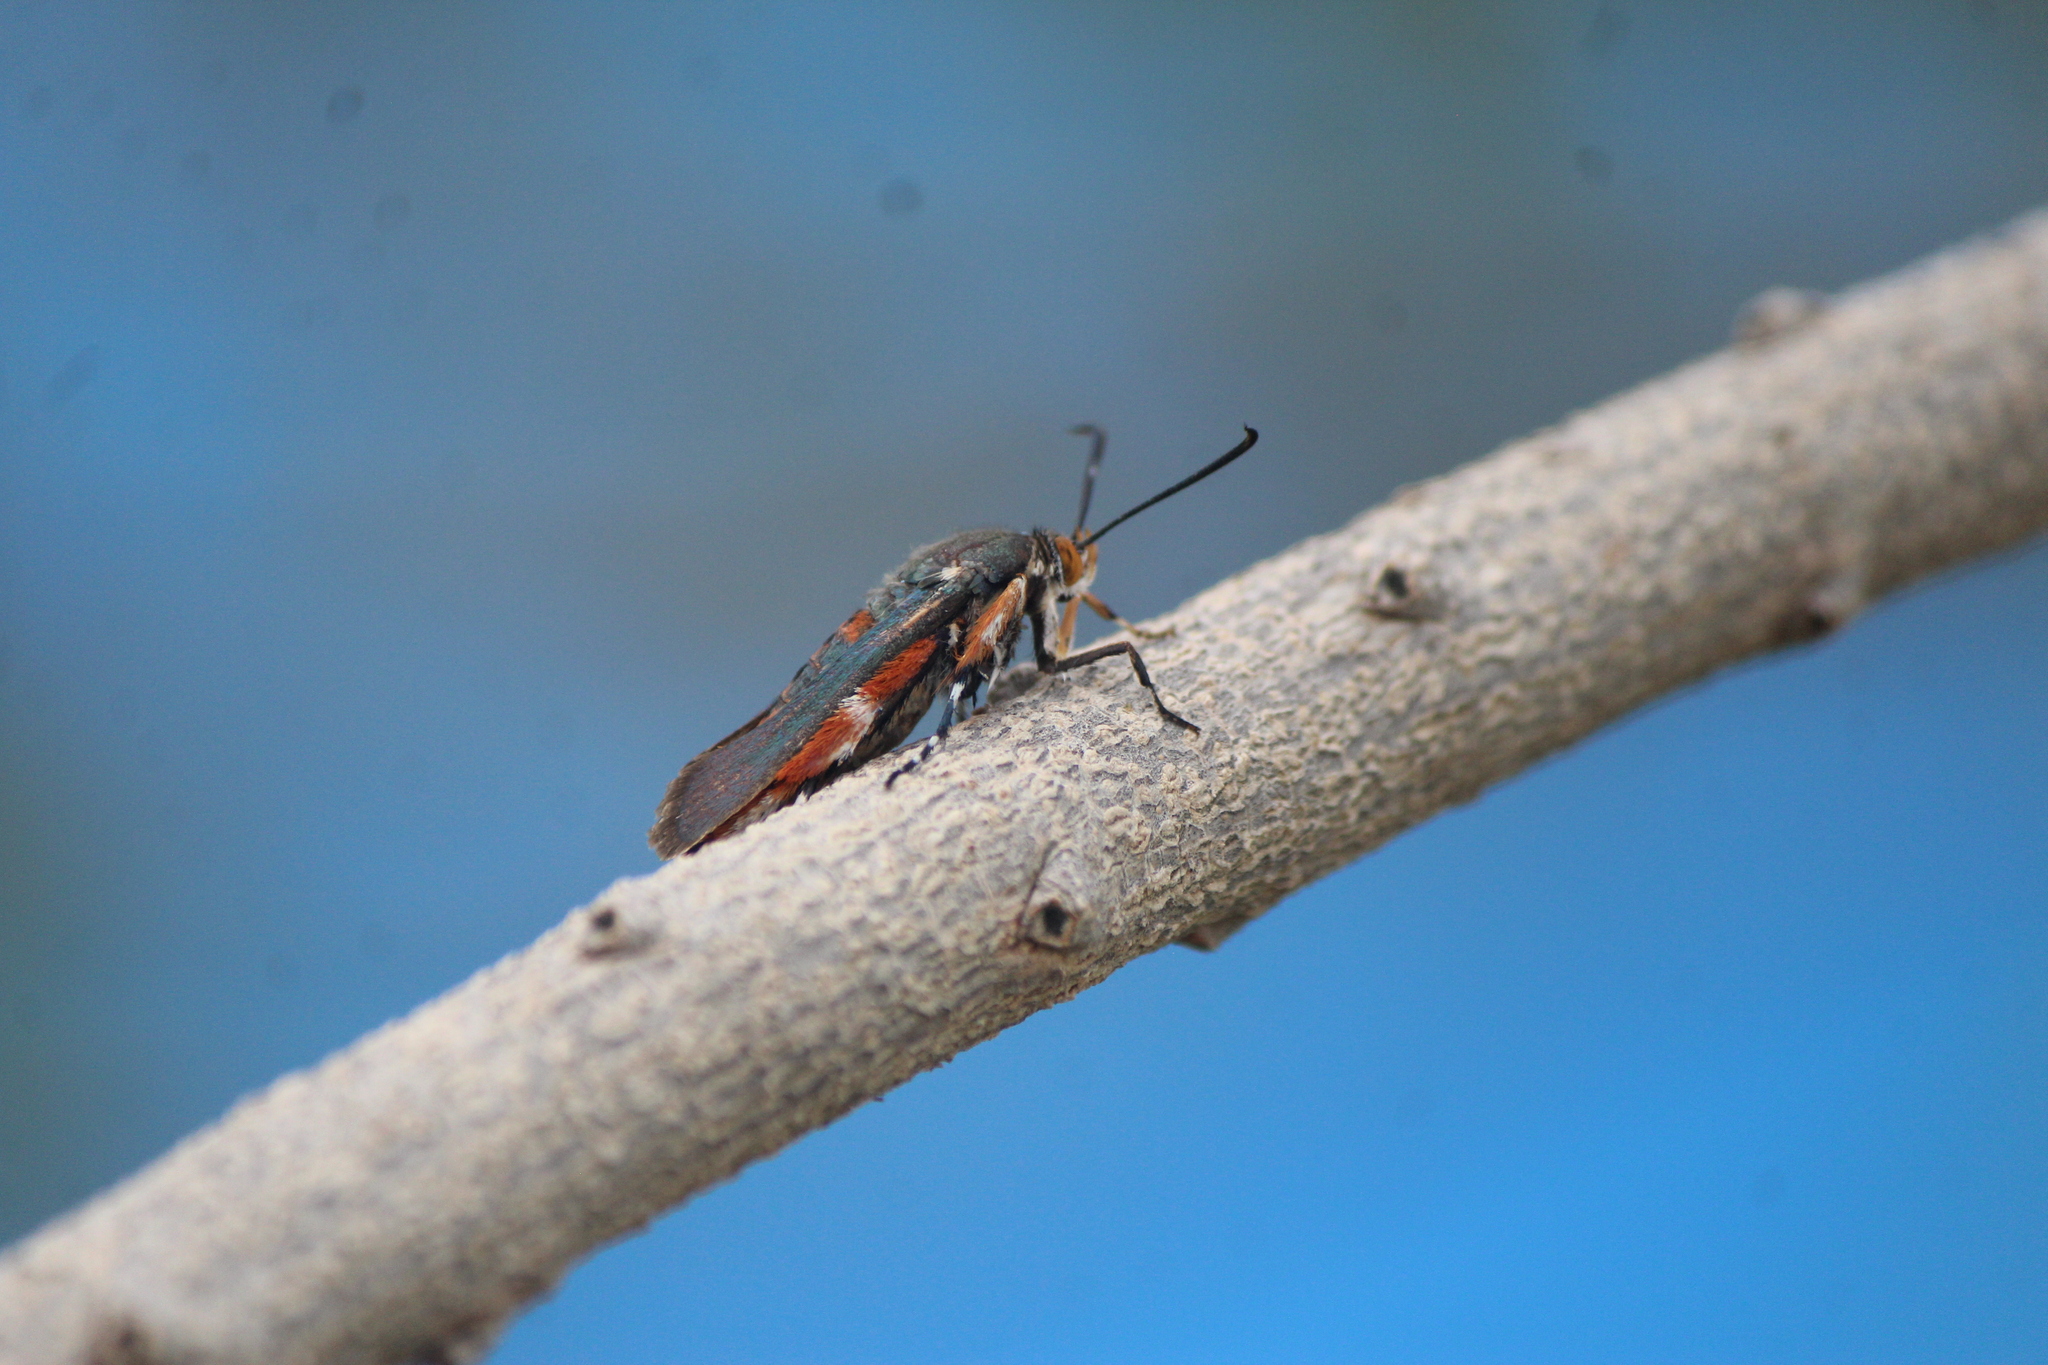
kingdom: Animalia
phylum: Arthropoda
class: Insecta
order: Lepidoptera
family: Sesiidae
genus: Eichlinia
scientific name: Eichlinia calabaza
